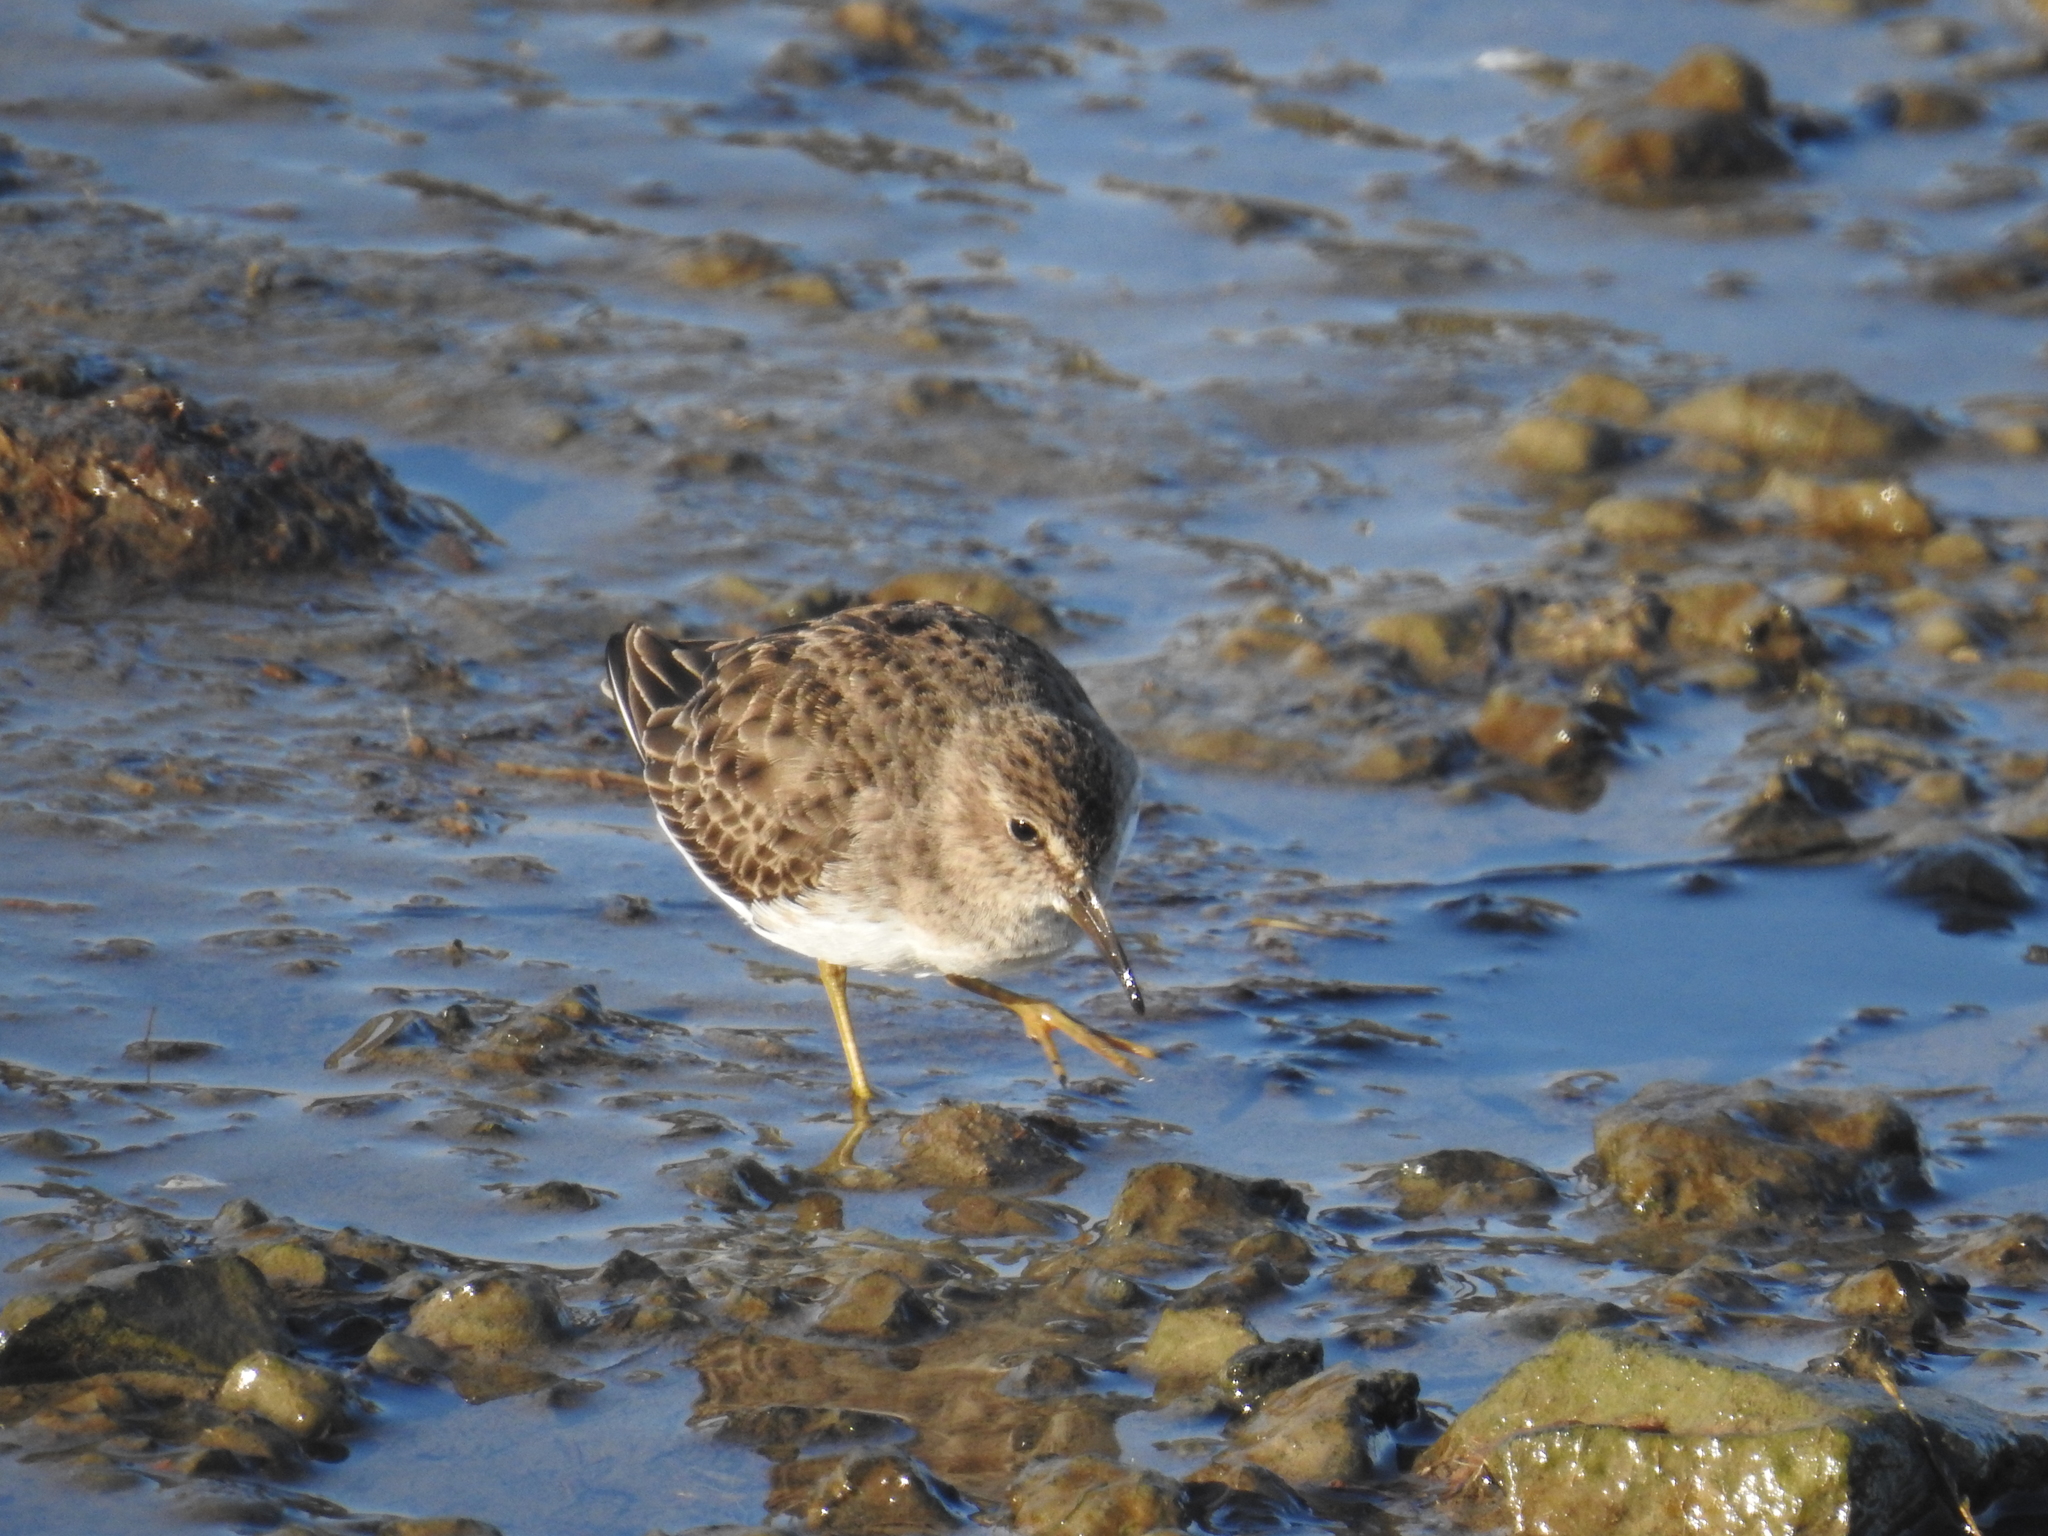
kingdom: Animalia
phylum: Chordata
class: Aves
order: Charadriiformes
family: Scolopacidae
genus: Calidris
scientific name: Calidris minutilla
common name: Least sandpiper
